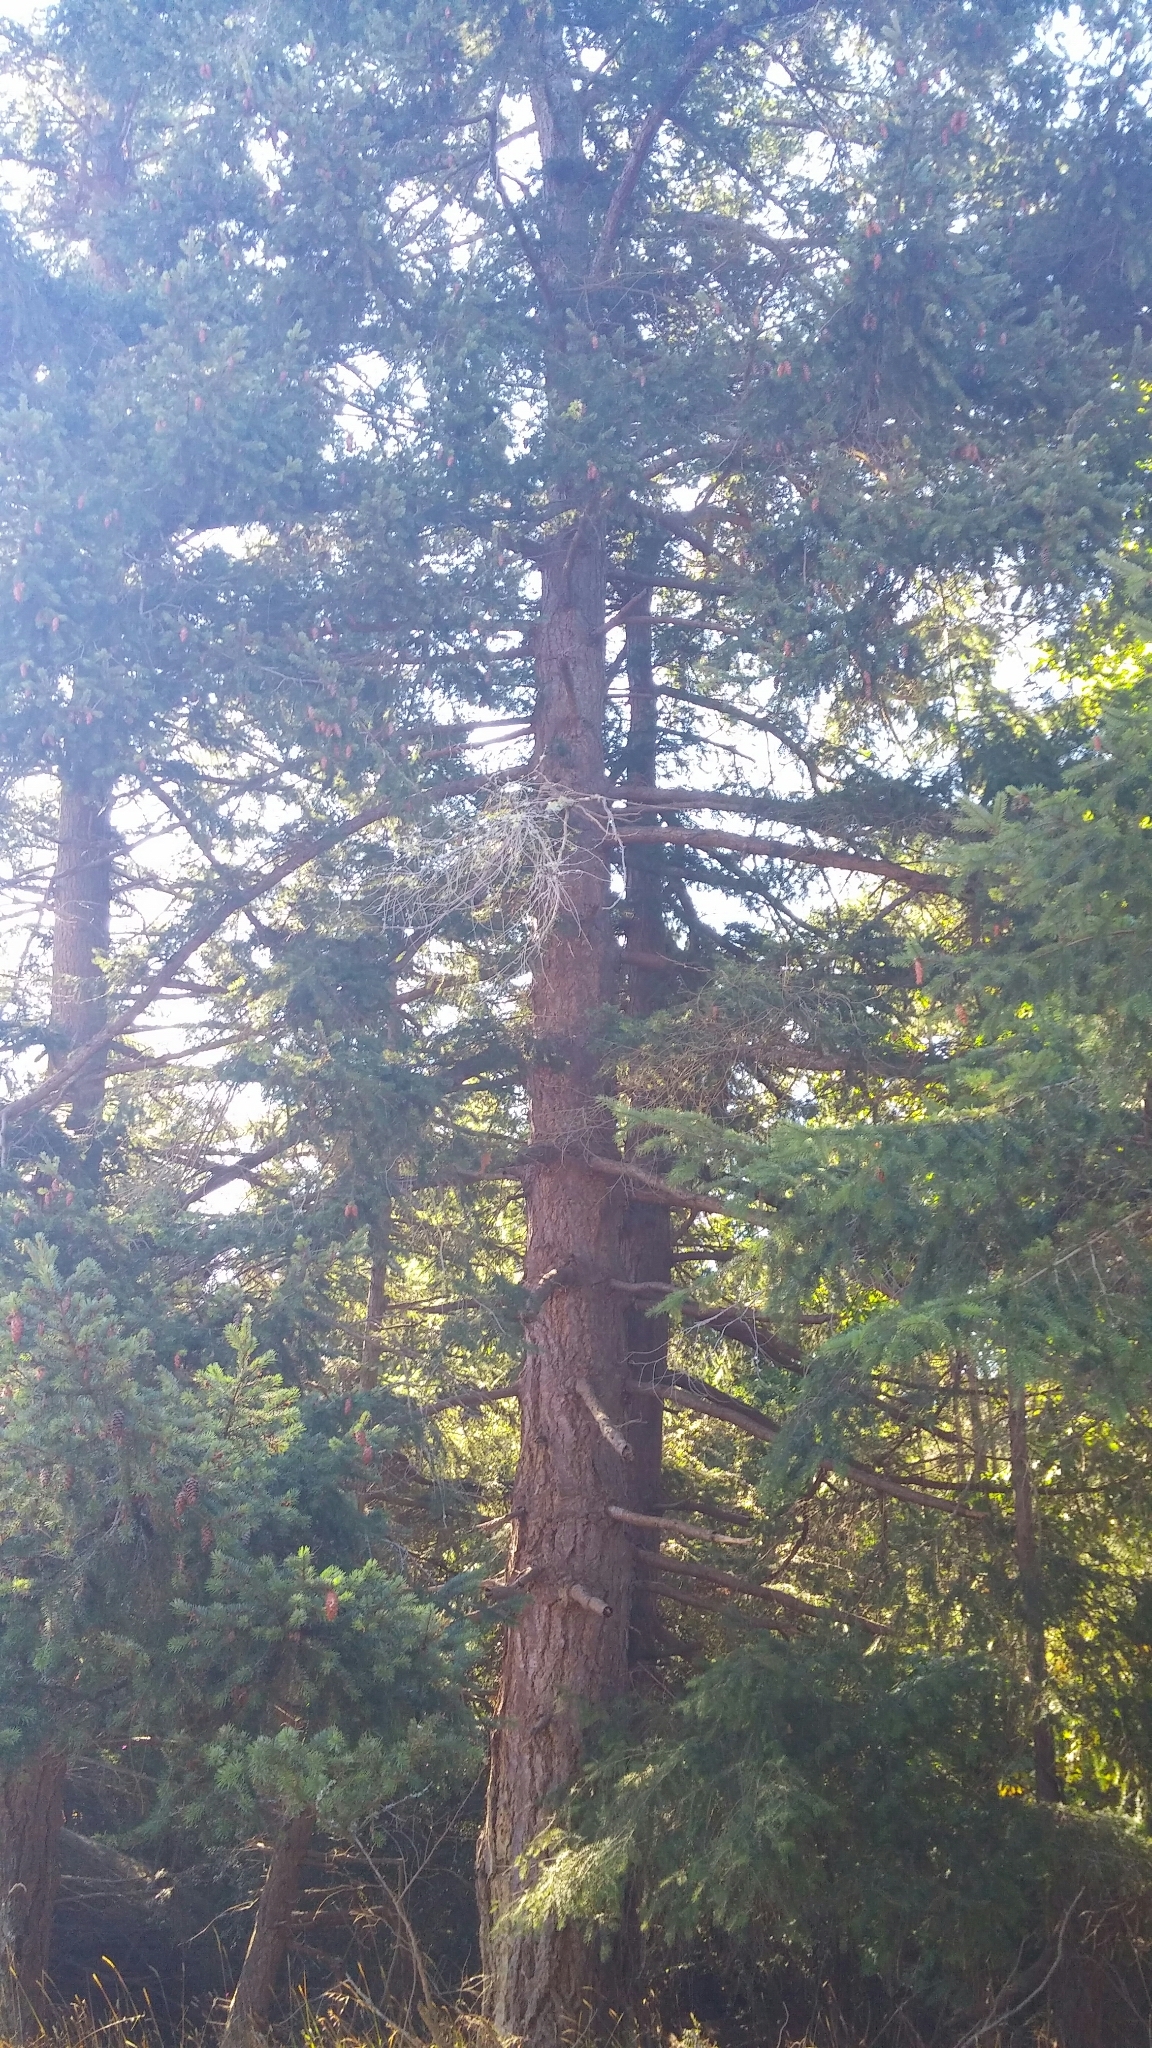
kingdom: Plantae
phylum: Tracheophyta
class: Pinopsida
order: Pinales
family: Pinaceae
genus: Pseudotsuga
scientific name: Pseudotsuga menziesii
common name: Douglas fir
